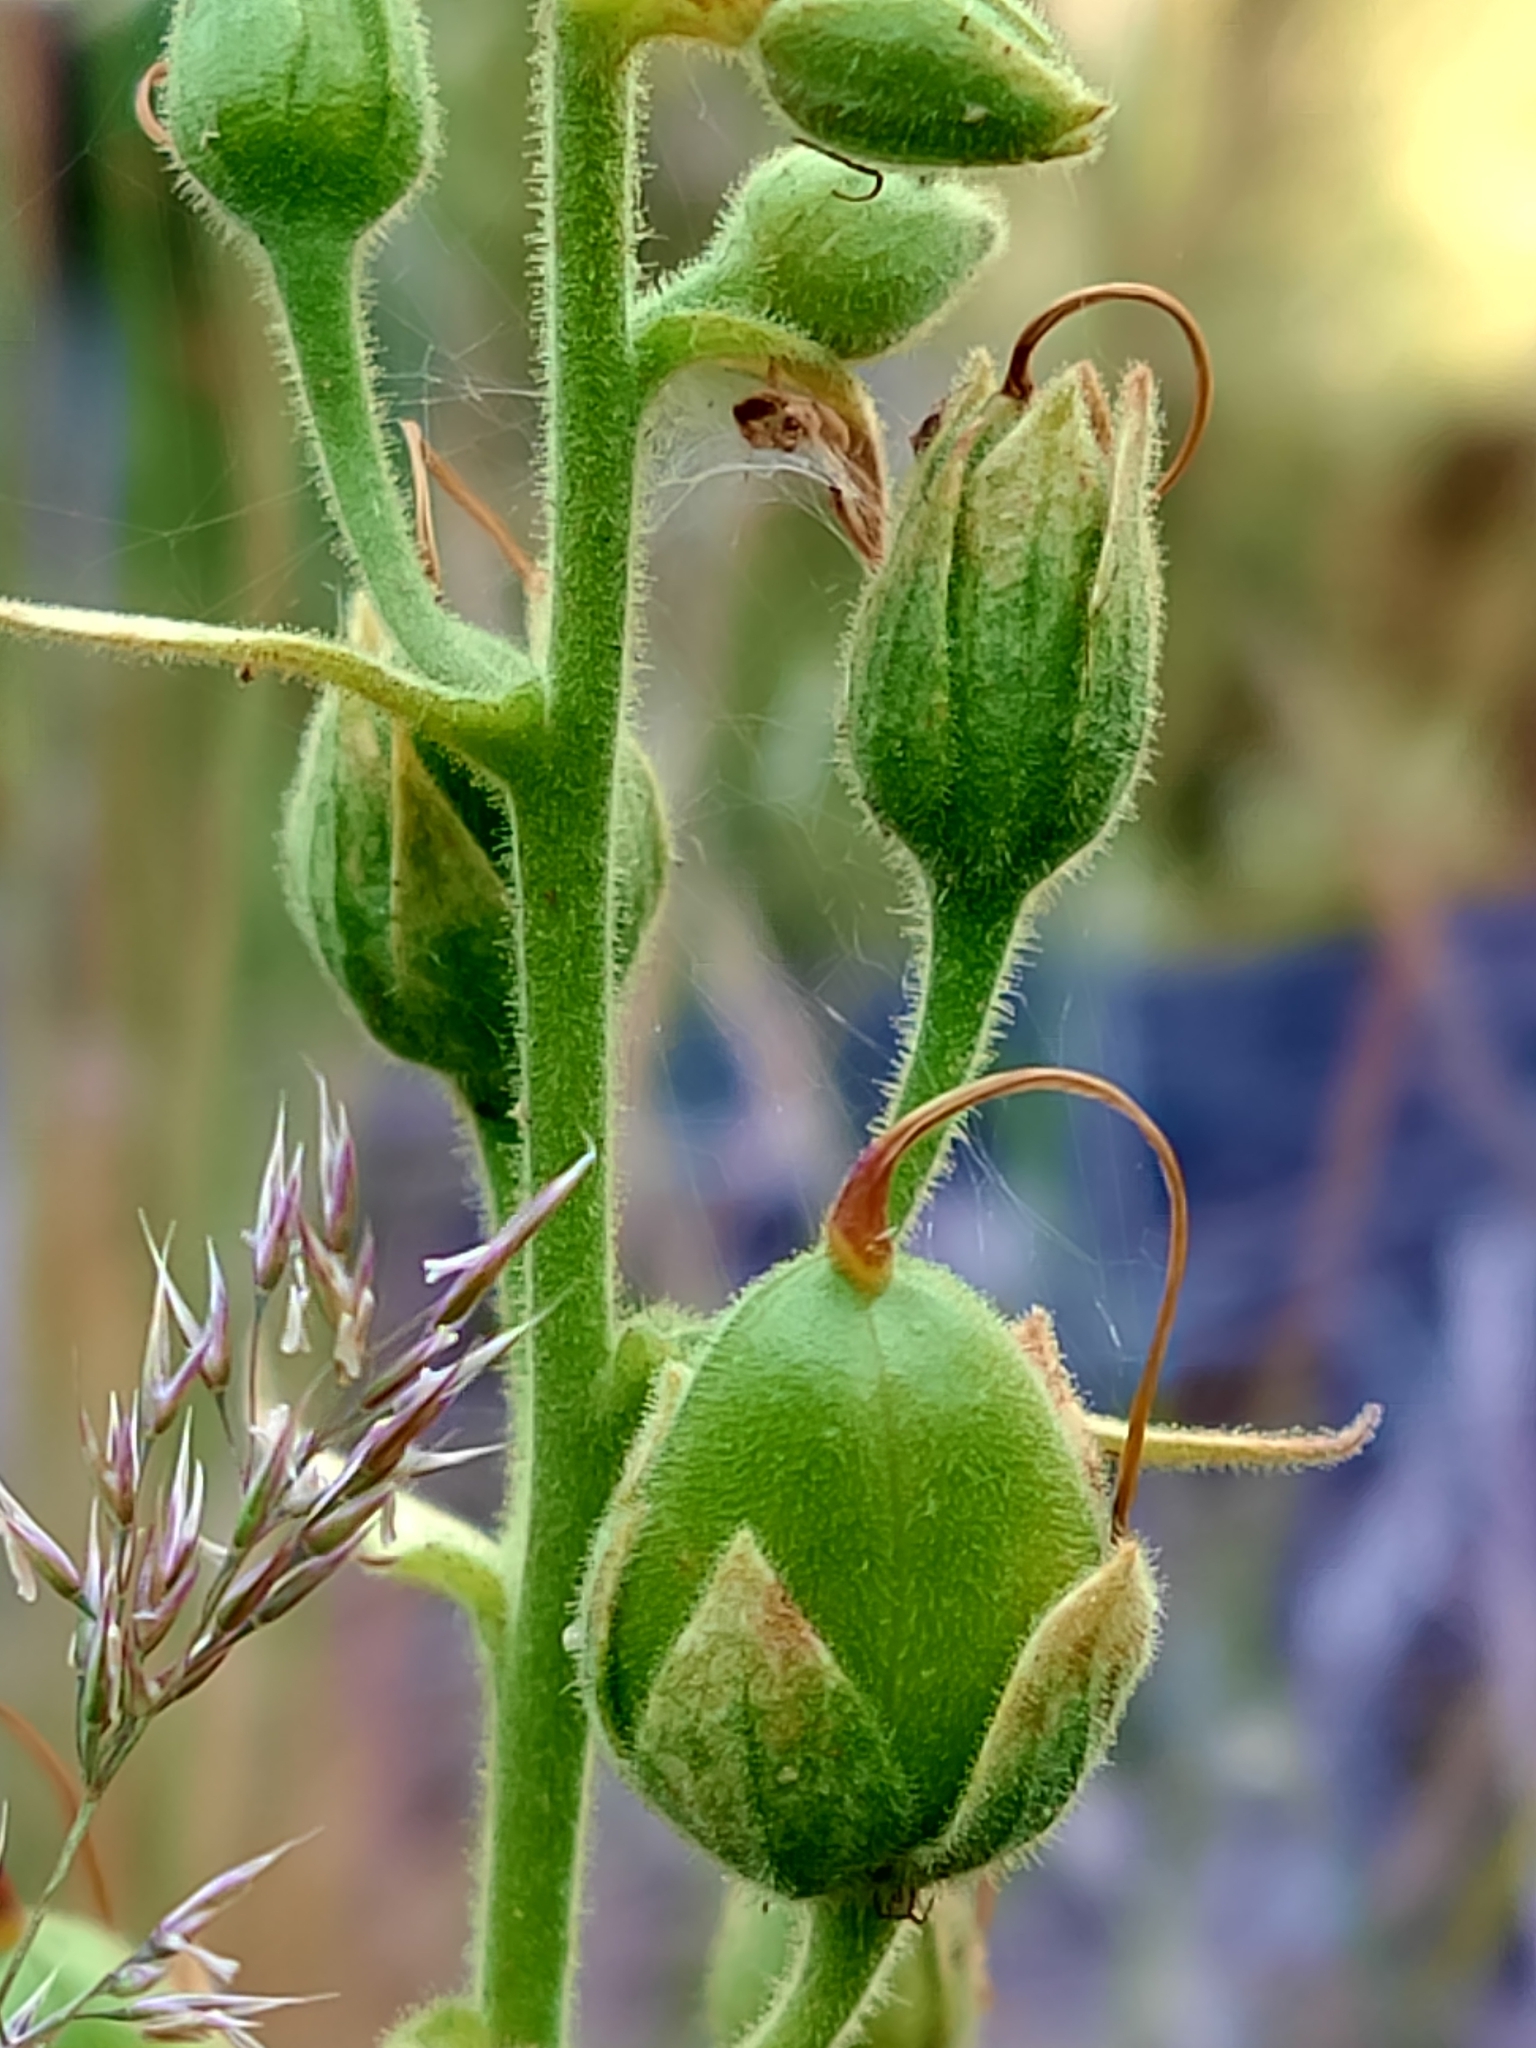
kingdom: Plantae
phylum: Tracheophyta
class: Magnoliopsida
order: Lamiales
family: Plantaginaceae
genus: Digitalis
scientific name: Digitalis thapsi
